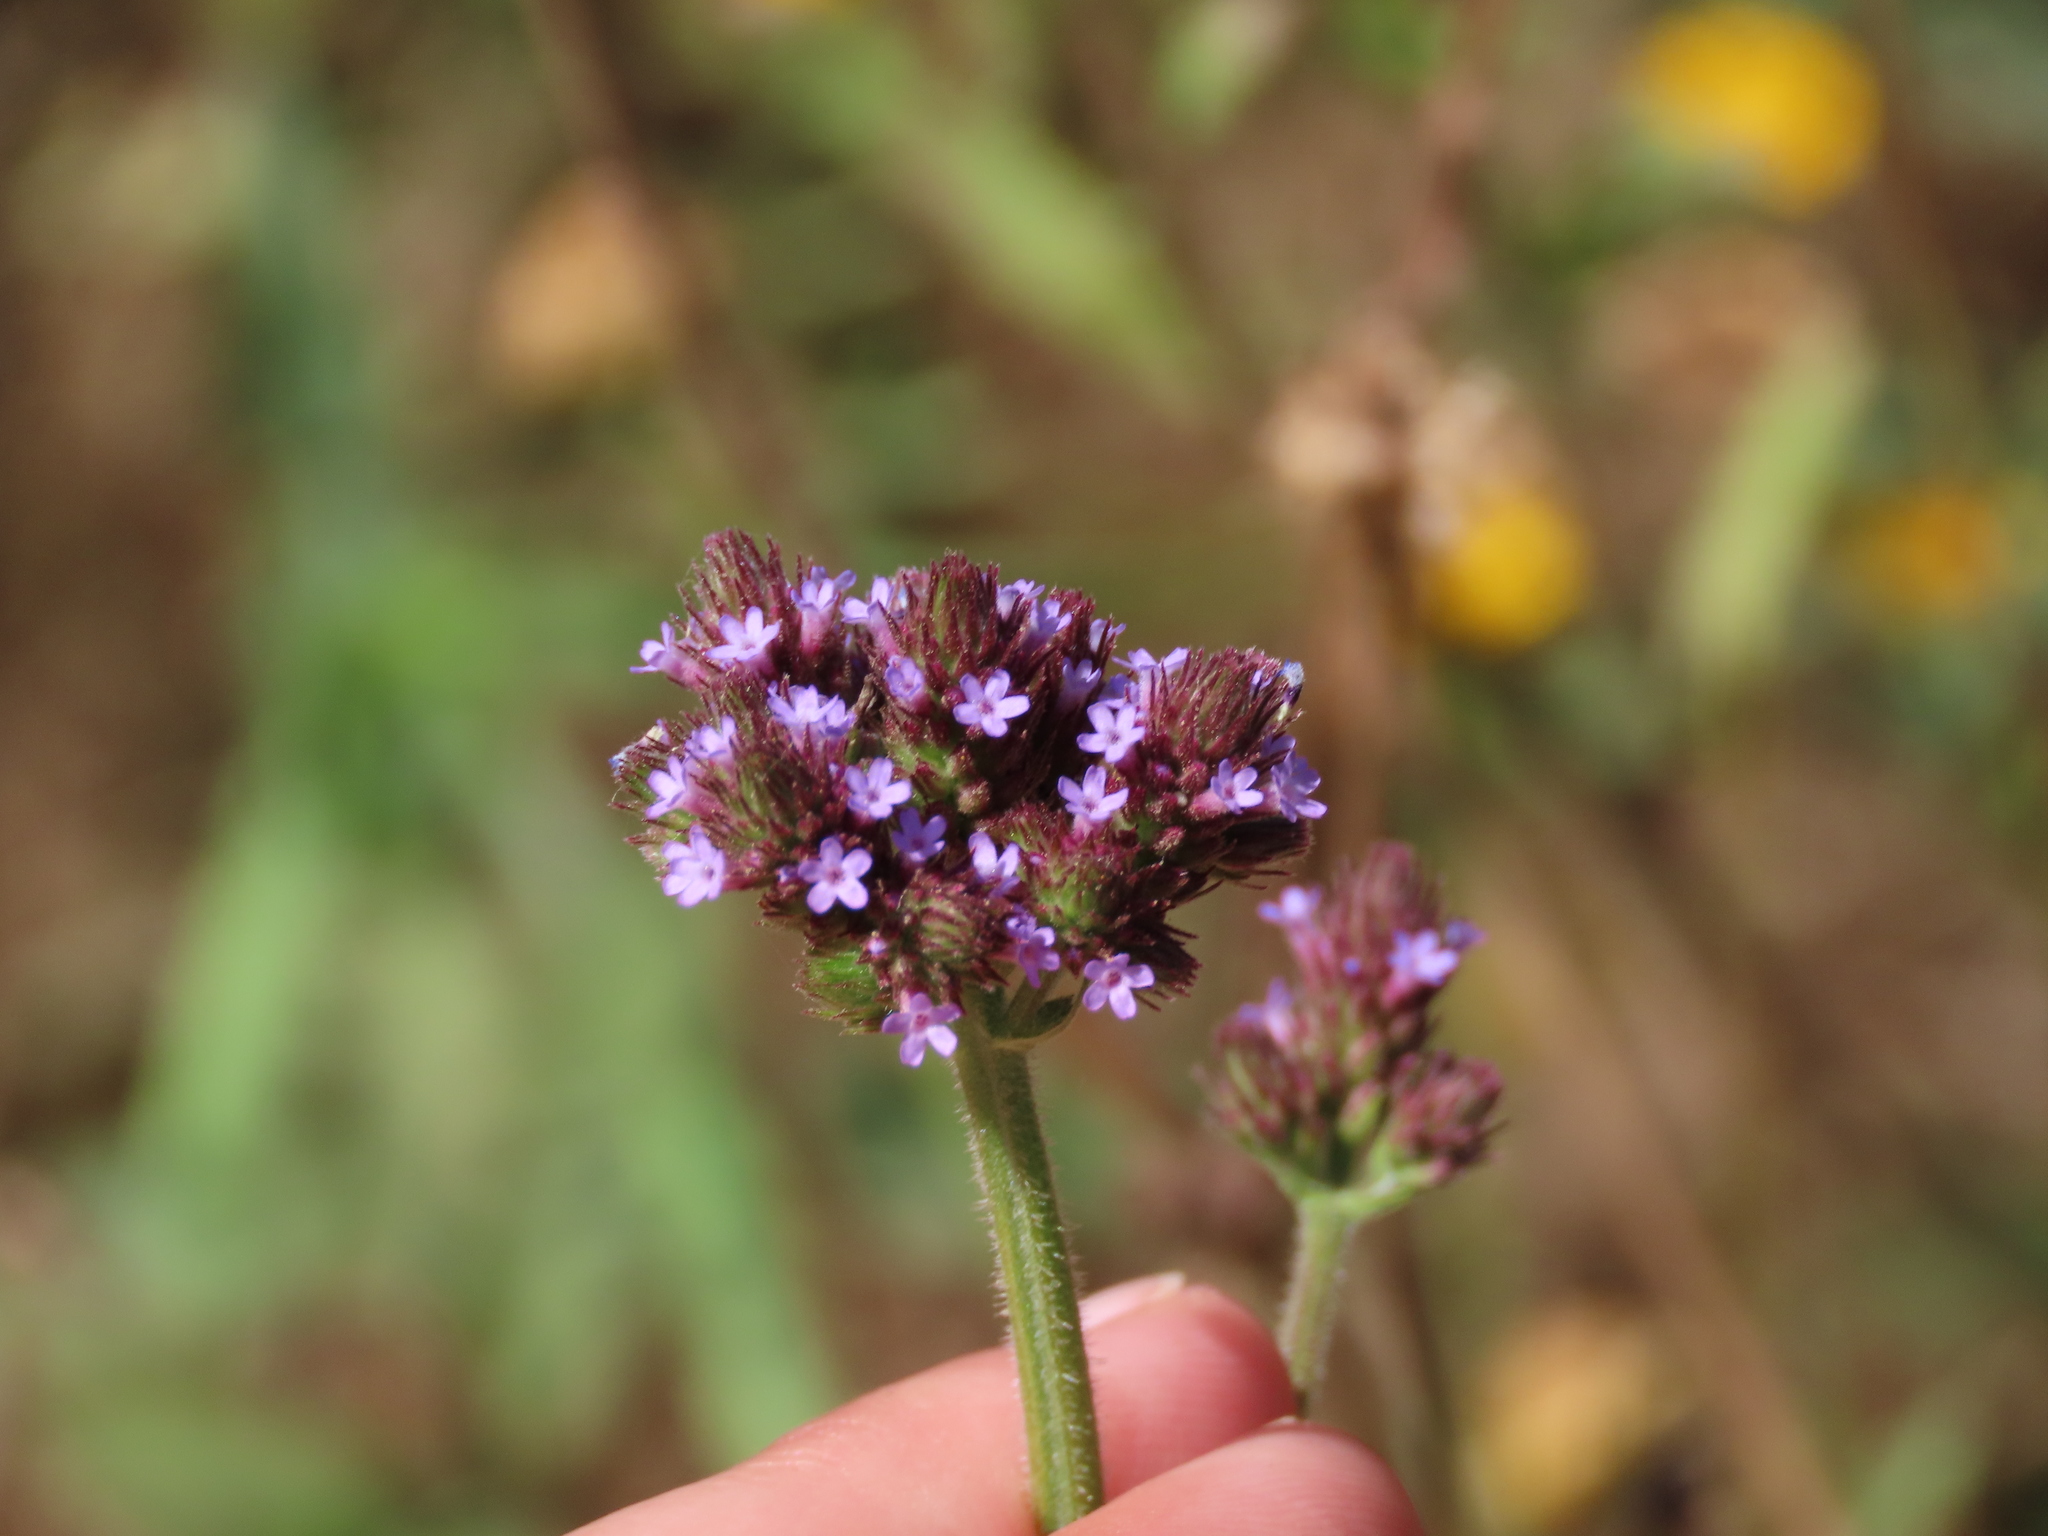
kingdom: Plantae
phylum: Tracheophyta
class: Magnoliopsida
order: Lamiales
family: Verbenaceae
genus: Verbena
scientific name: Verbena bonariensis
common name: Purpletop vervain
